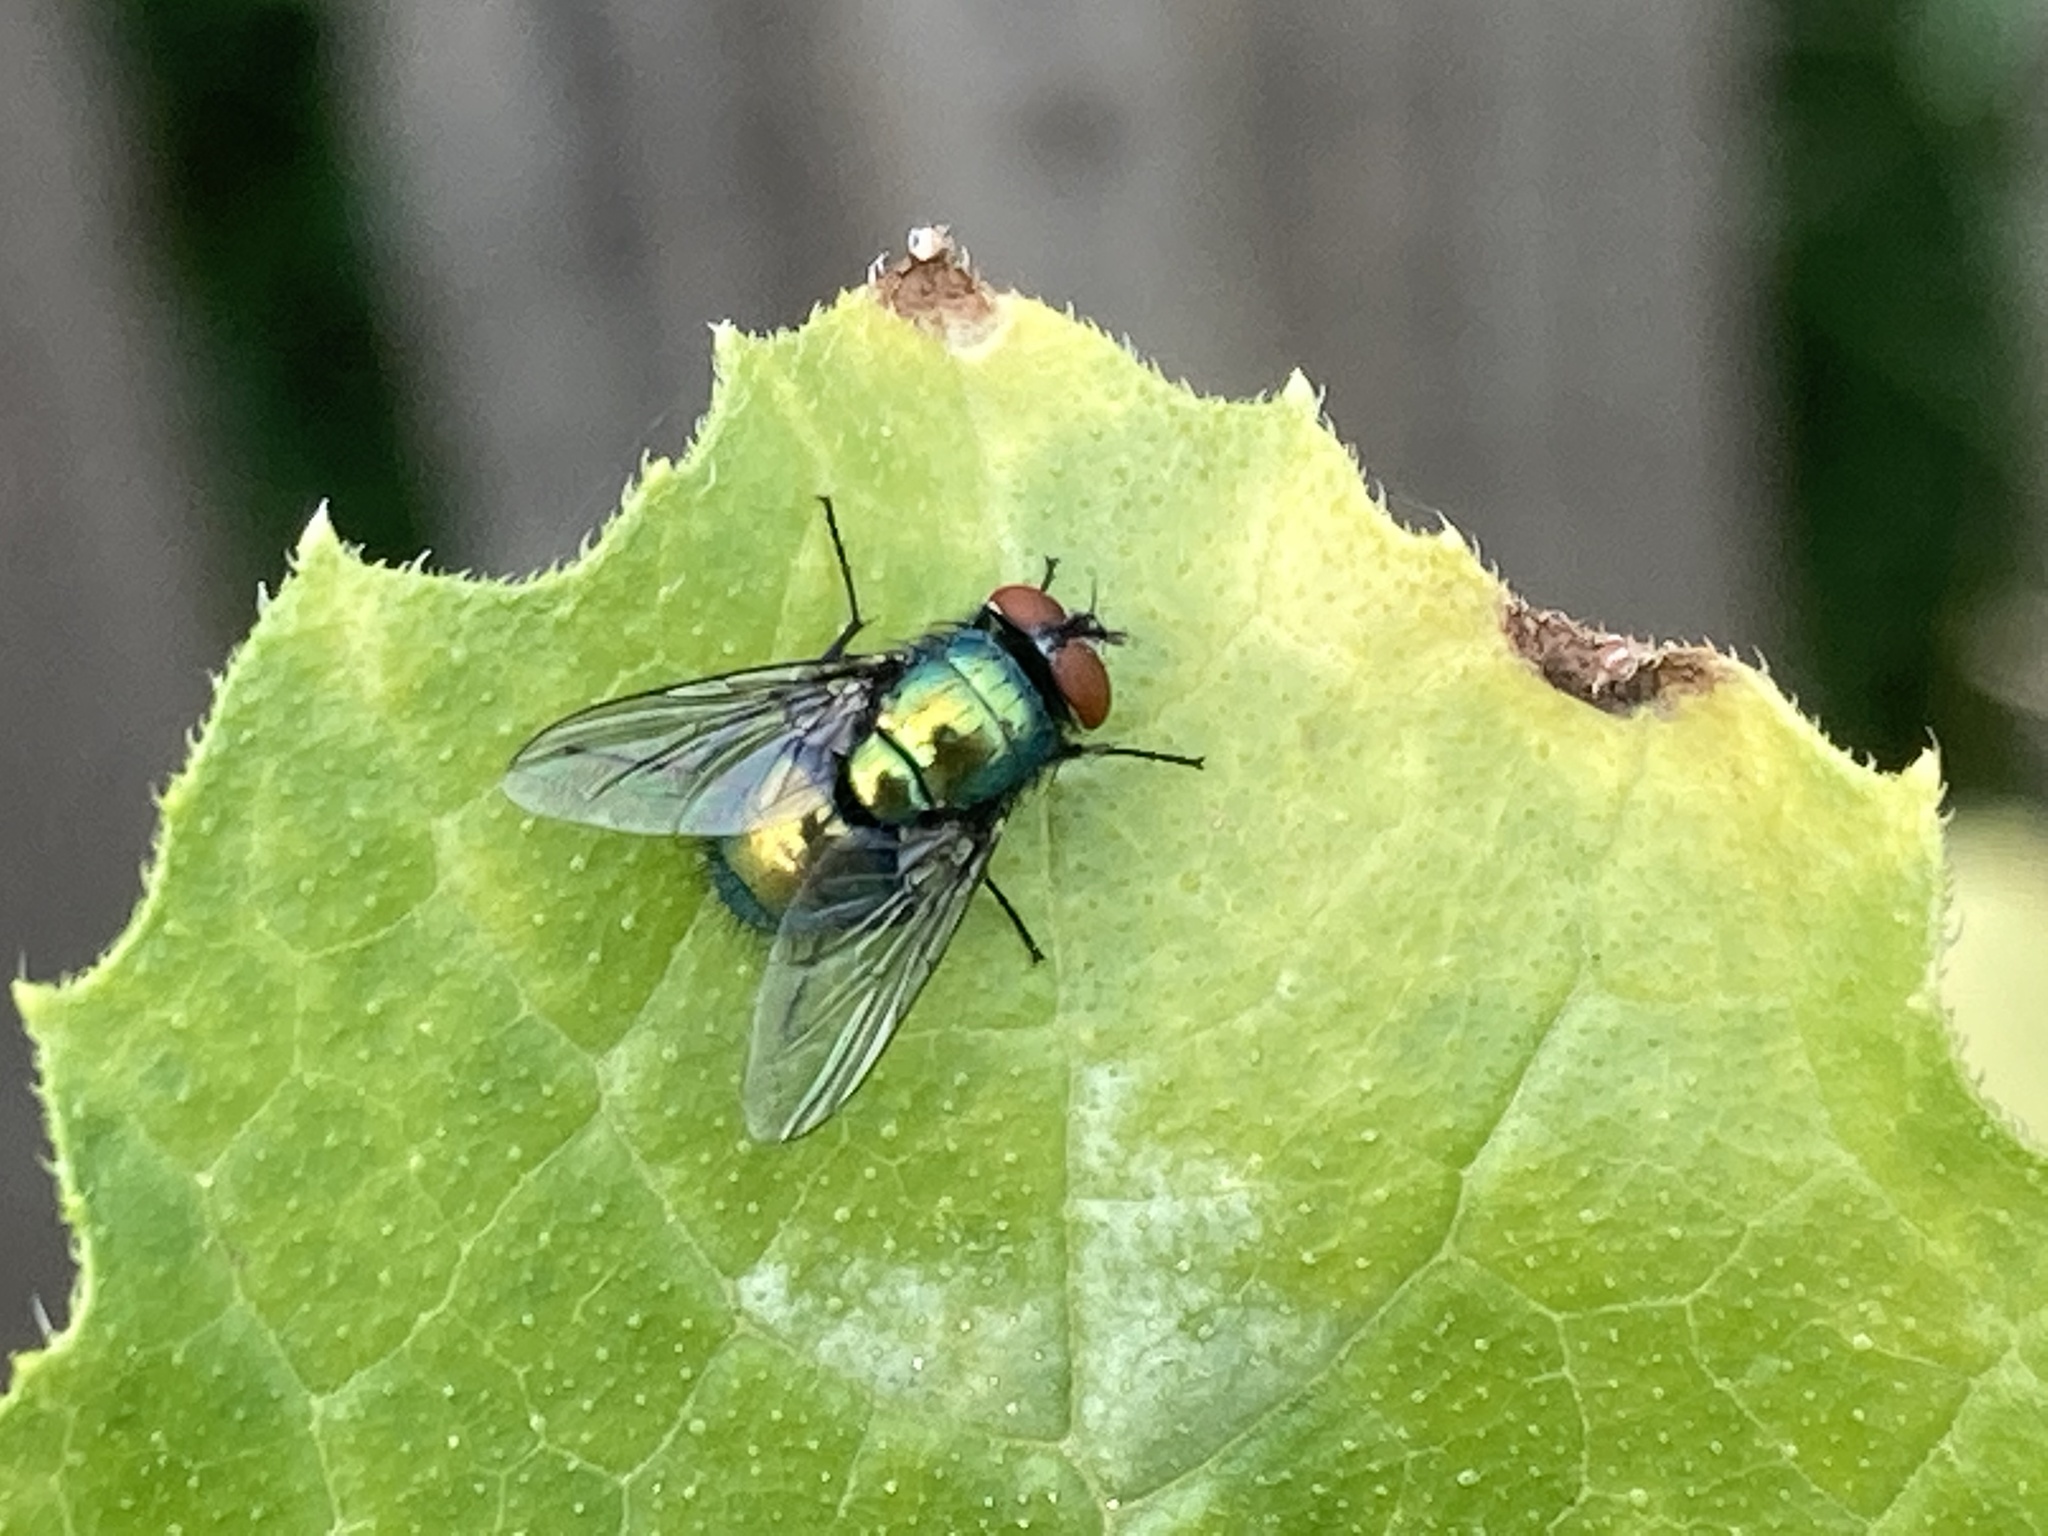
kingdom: Animalia
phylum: Arthropoda
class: Insecta
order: Diptera
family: Calliphoridae
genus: Lucilia
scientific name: Lucilia
